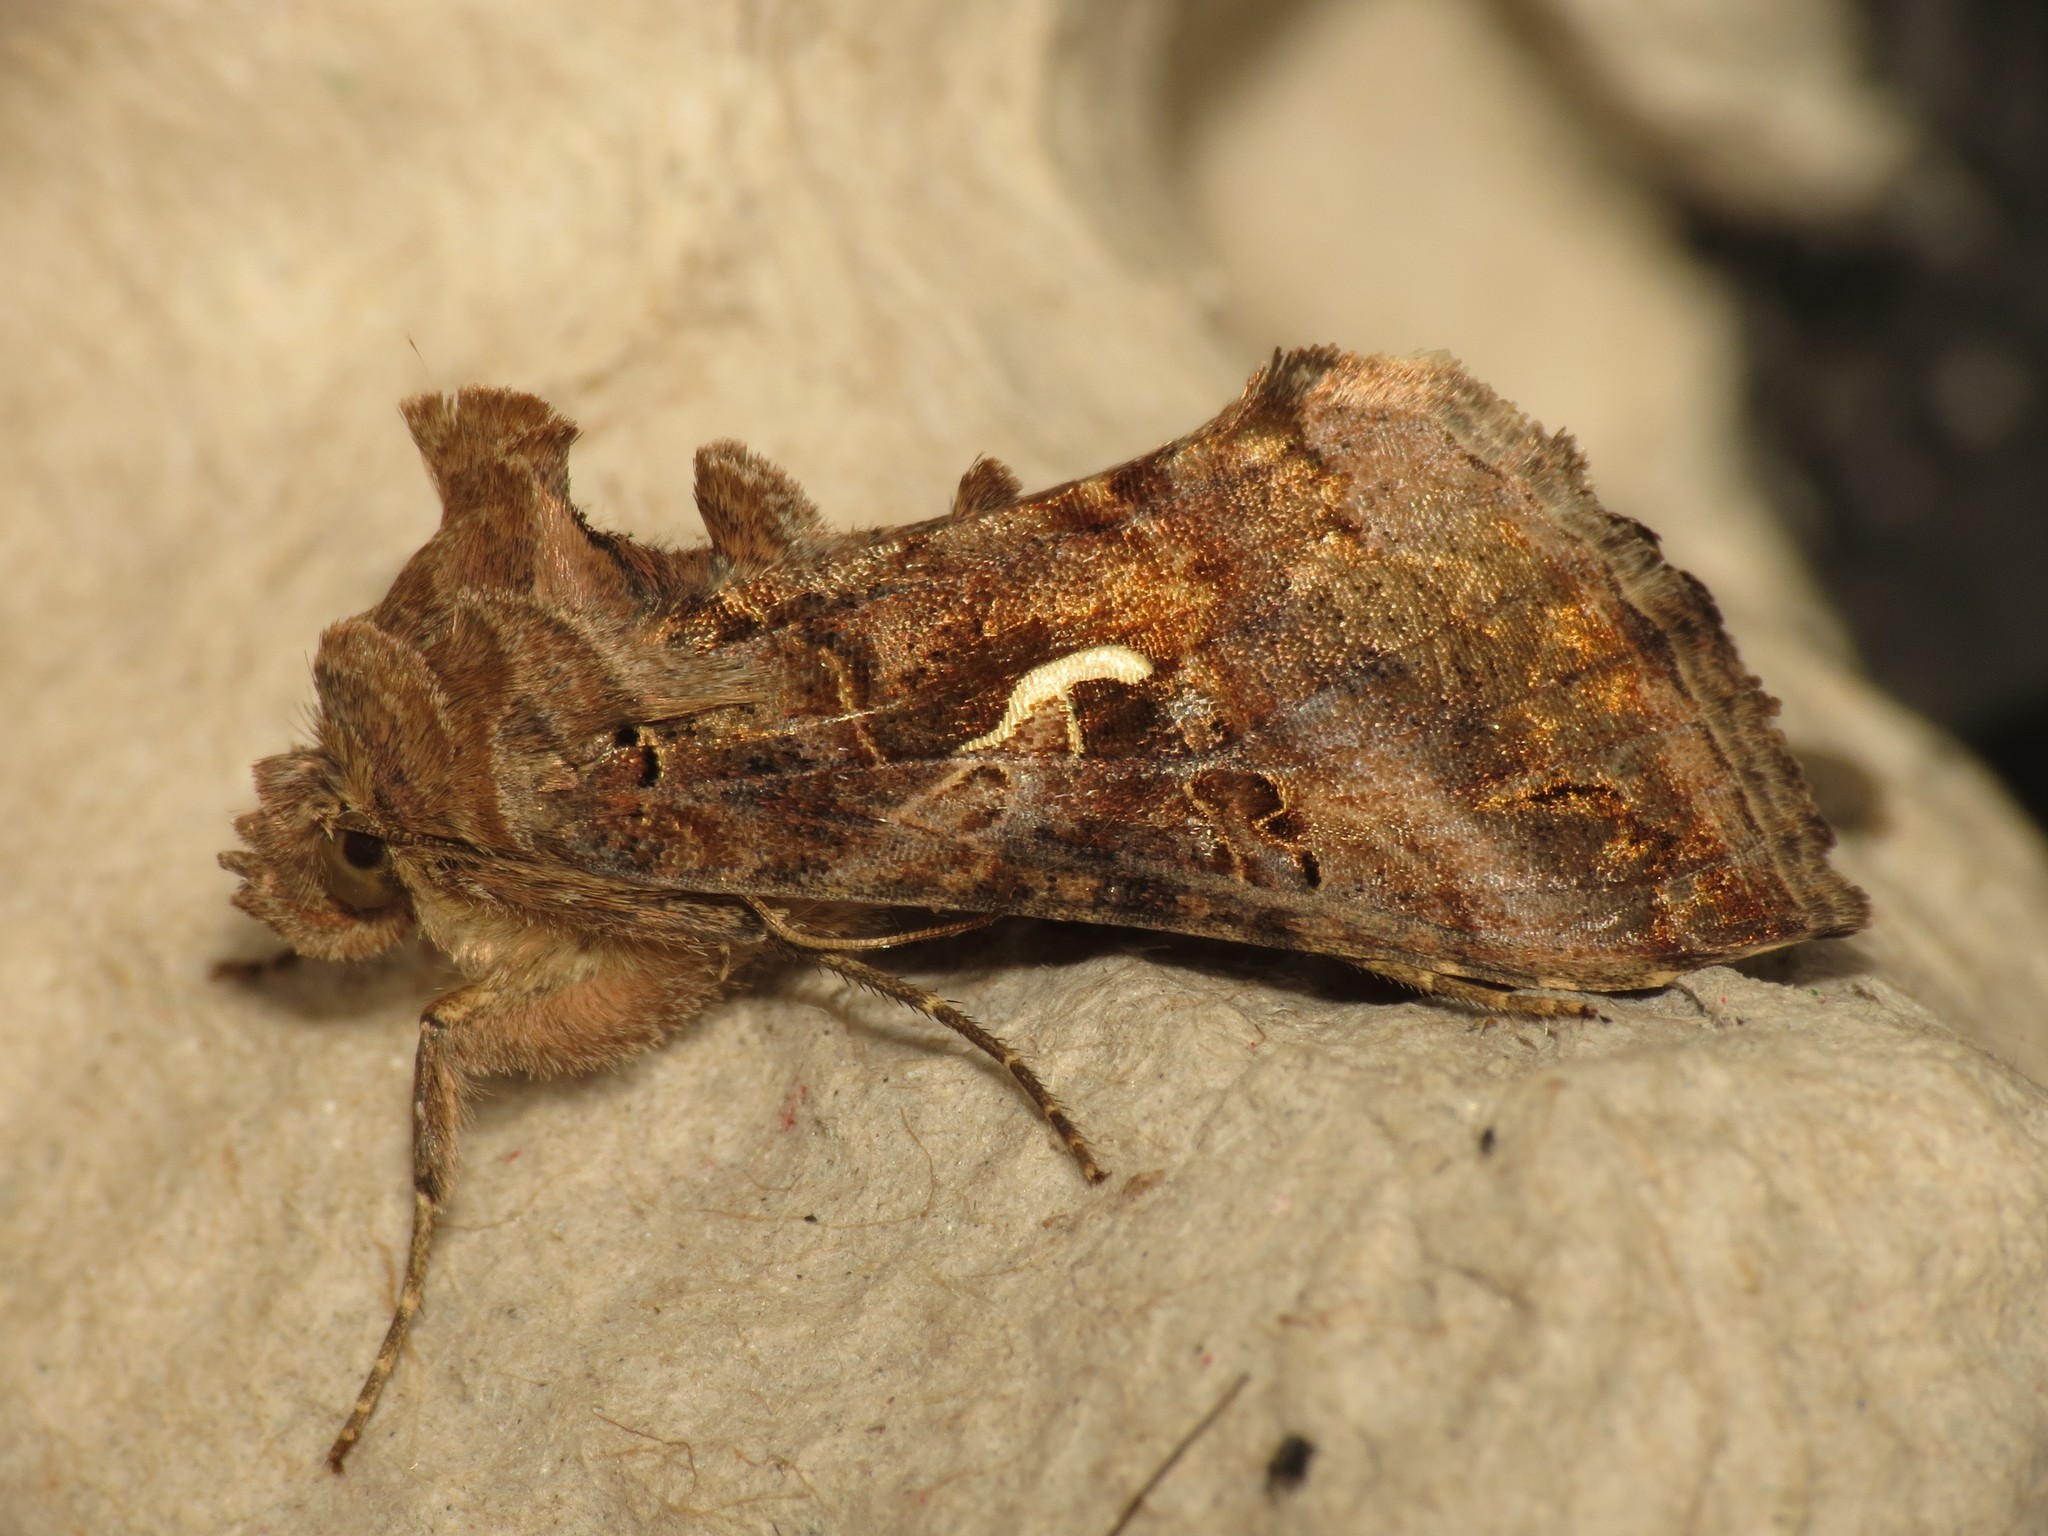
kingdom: Animalia
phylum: Arthropoda
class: Insecta
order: Lepidoptera
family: Noctuidae
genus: Autographa
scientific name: Autographa gamma
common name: Silver y
